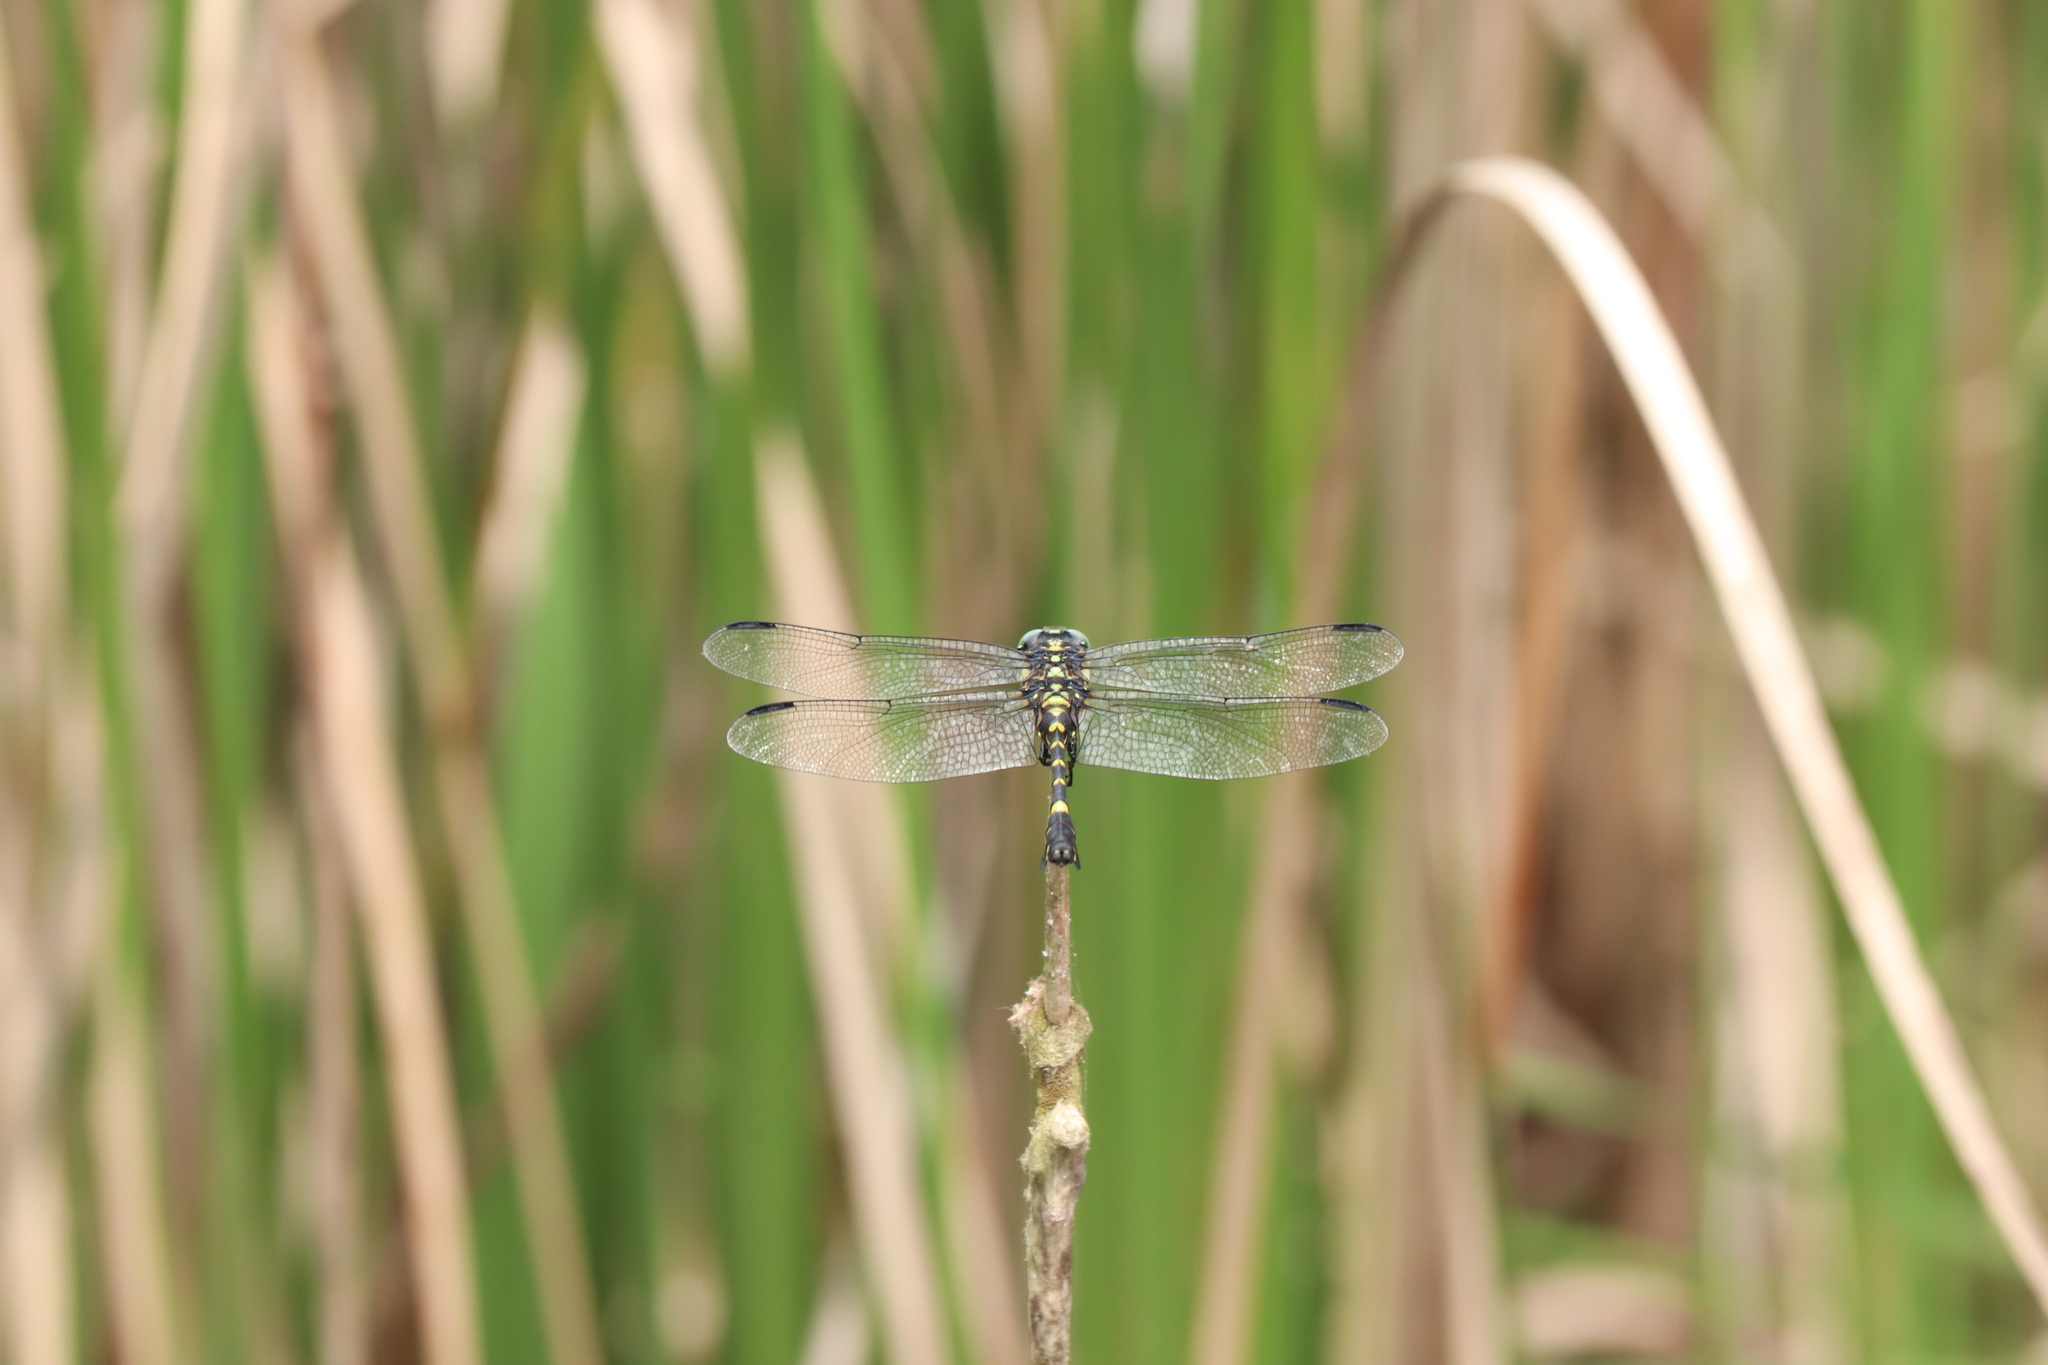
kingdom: Animalia
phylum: Arthropoda
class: Insecta
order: Odonata
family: Gomphidae
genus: Ictinogomphus
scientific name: Ictinogomphus pertinax
